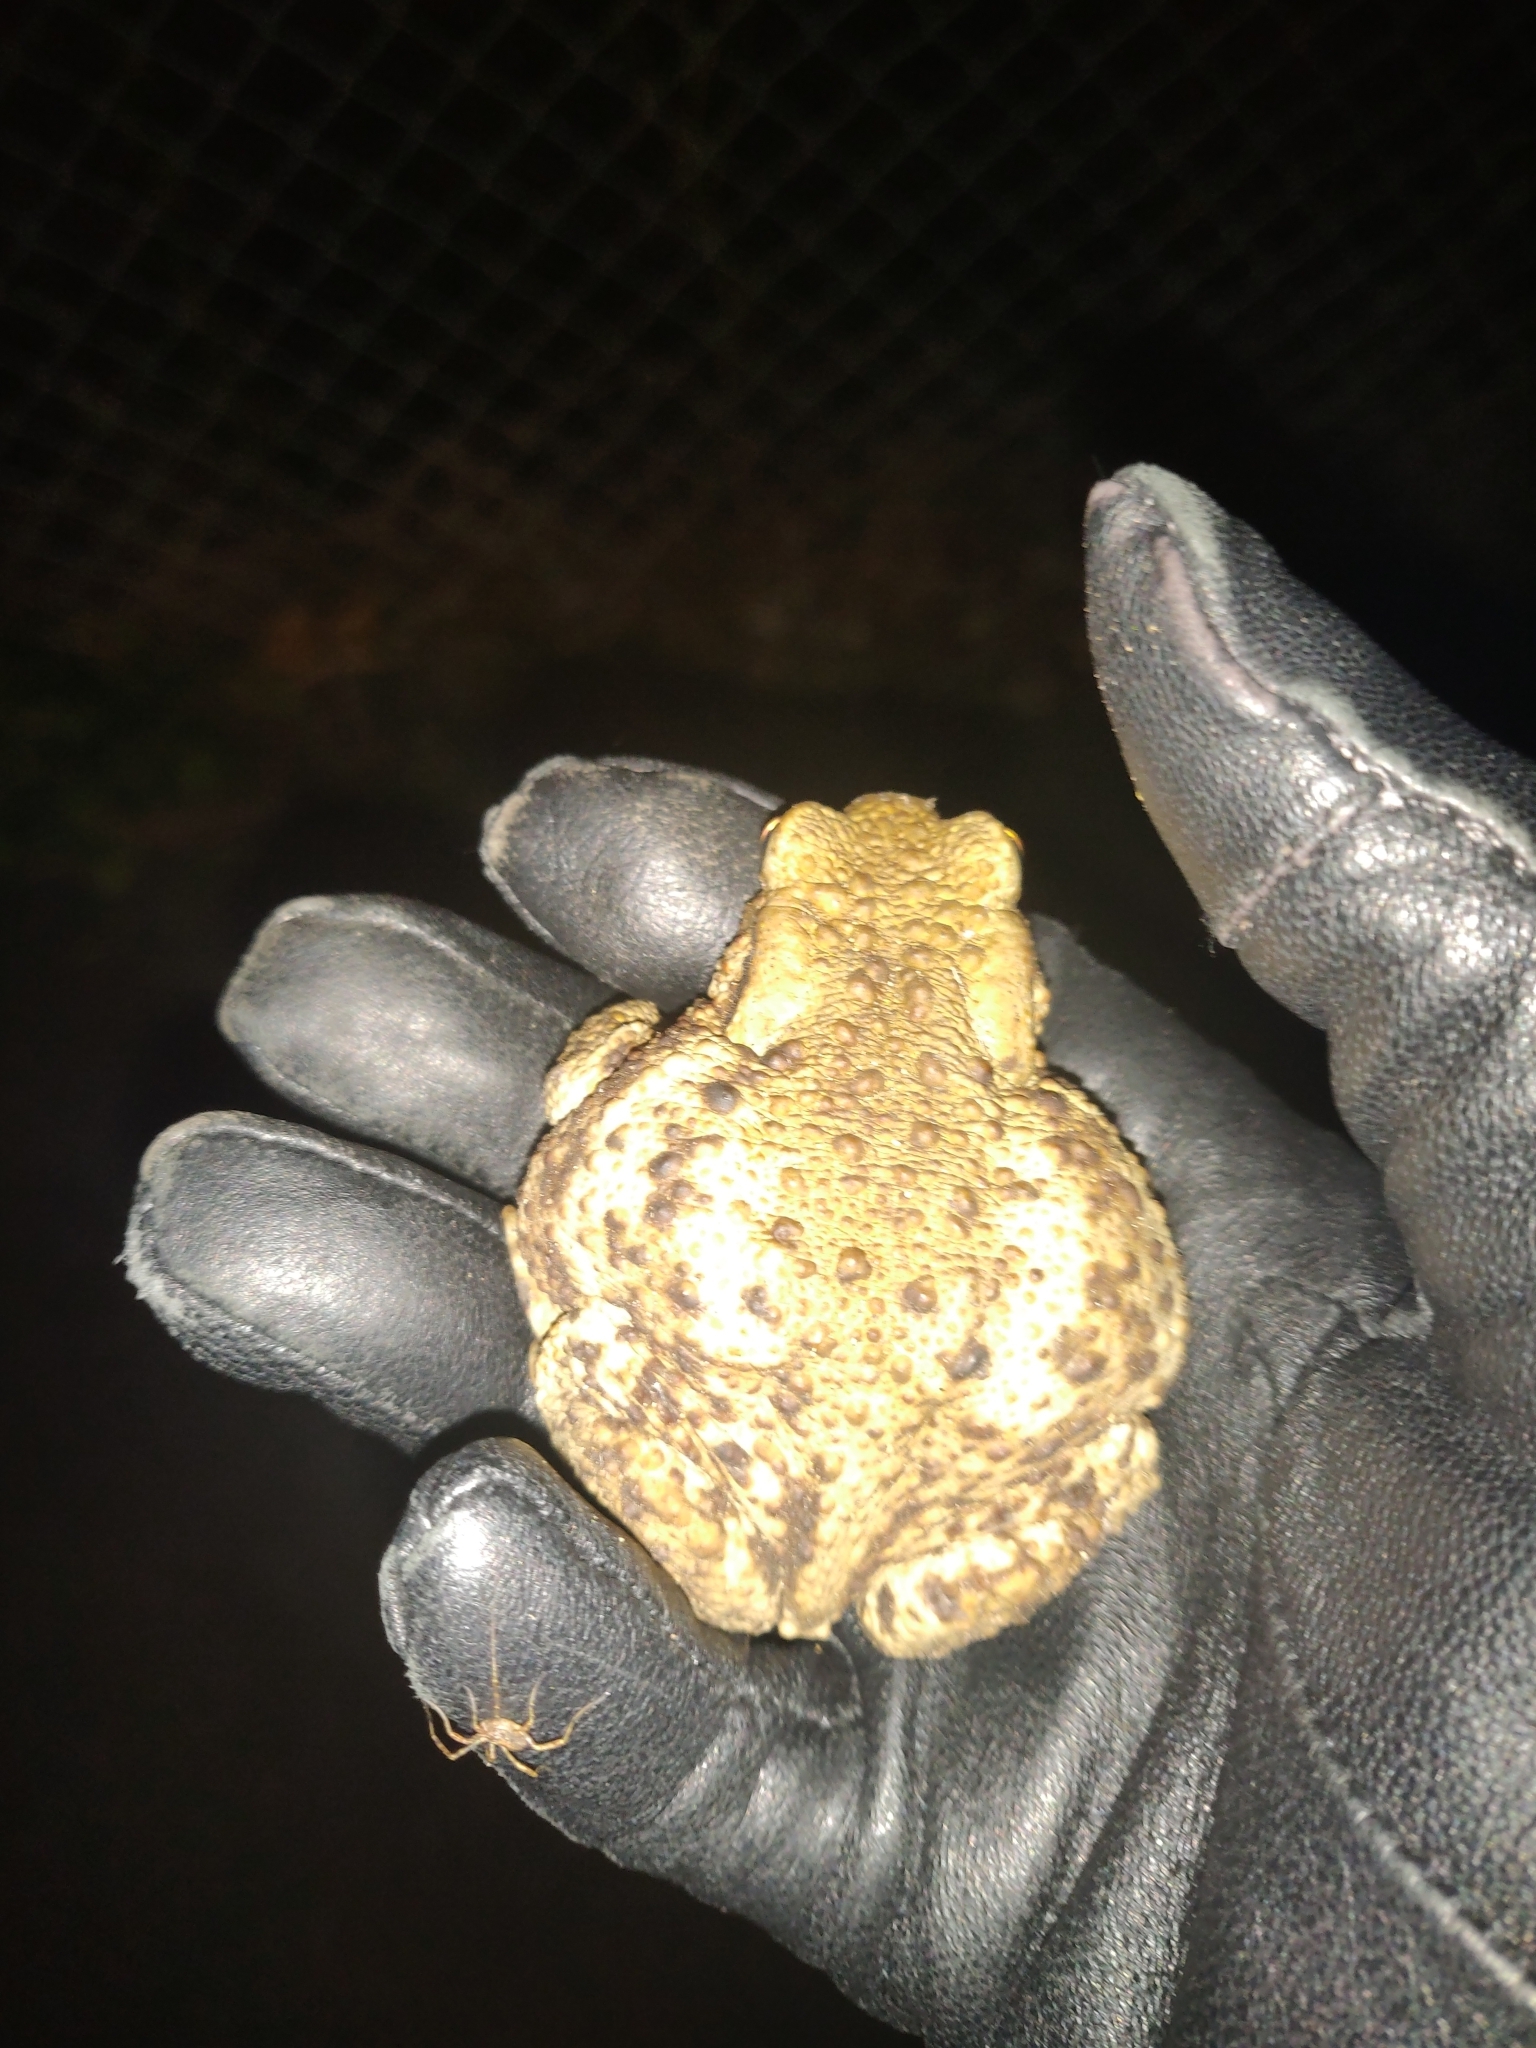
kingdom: Animalia
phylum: Chordata
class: Amphibia
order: Anura
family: Bufonidae
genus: Bufo
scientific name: Bufo bufo
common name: Common toad
